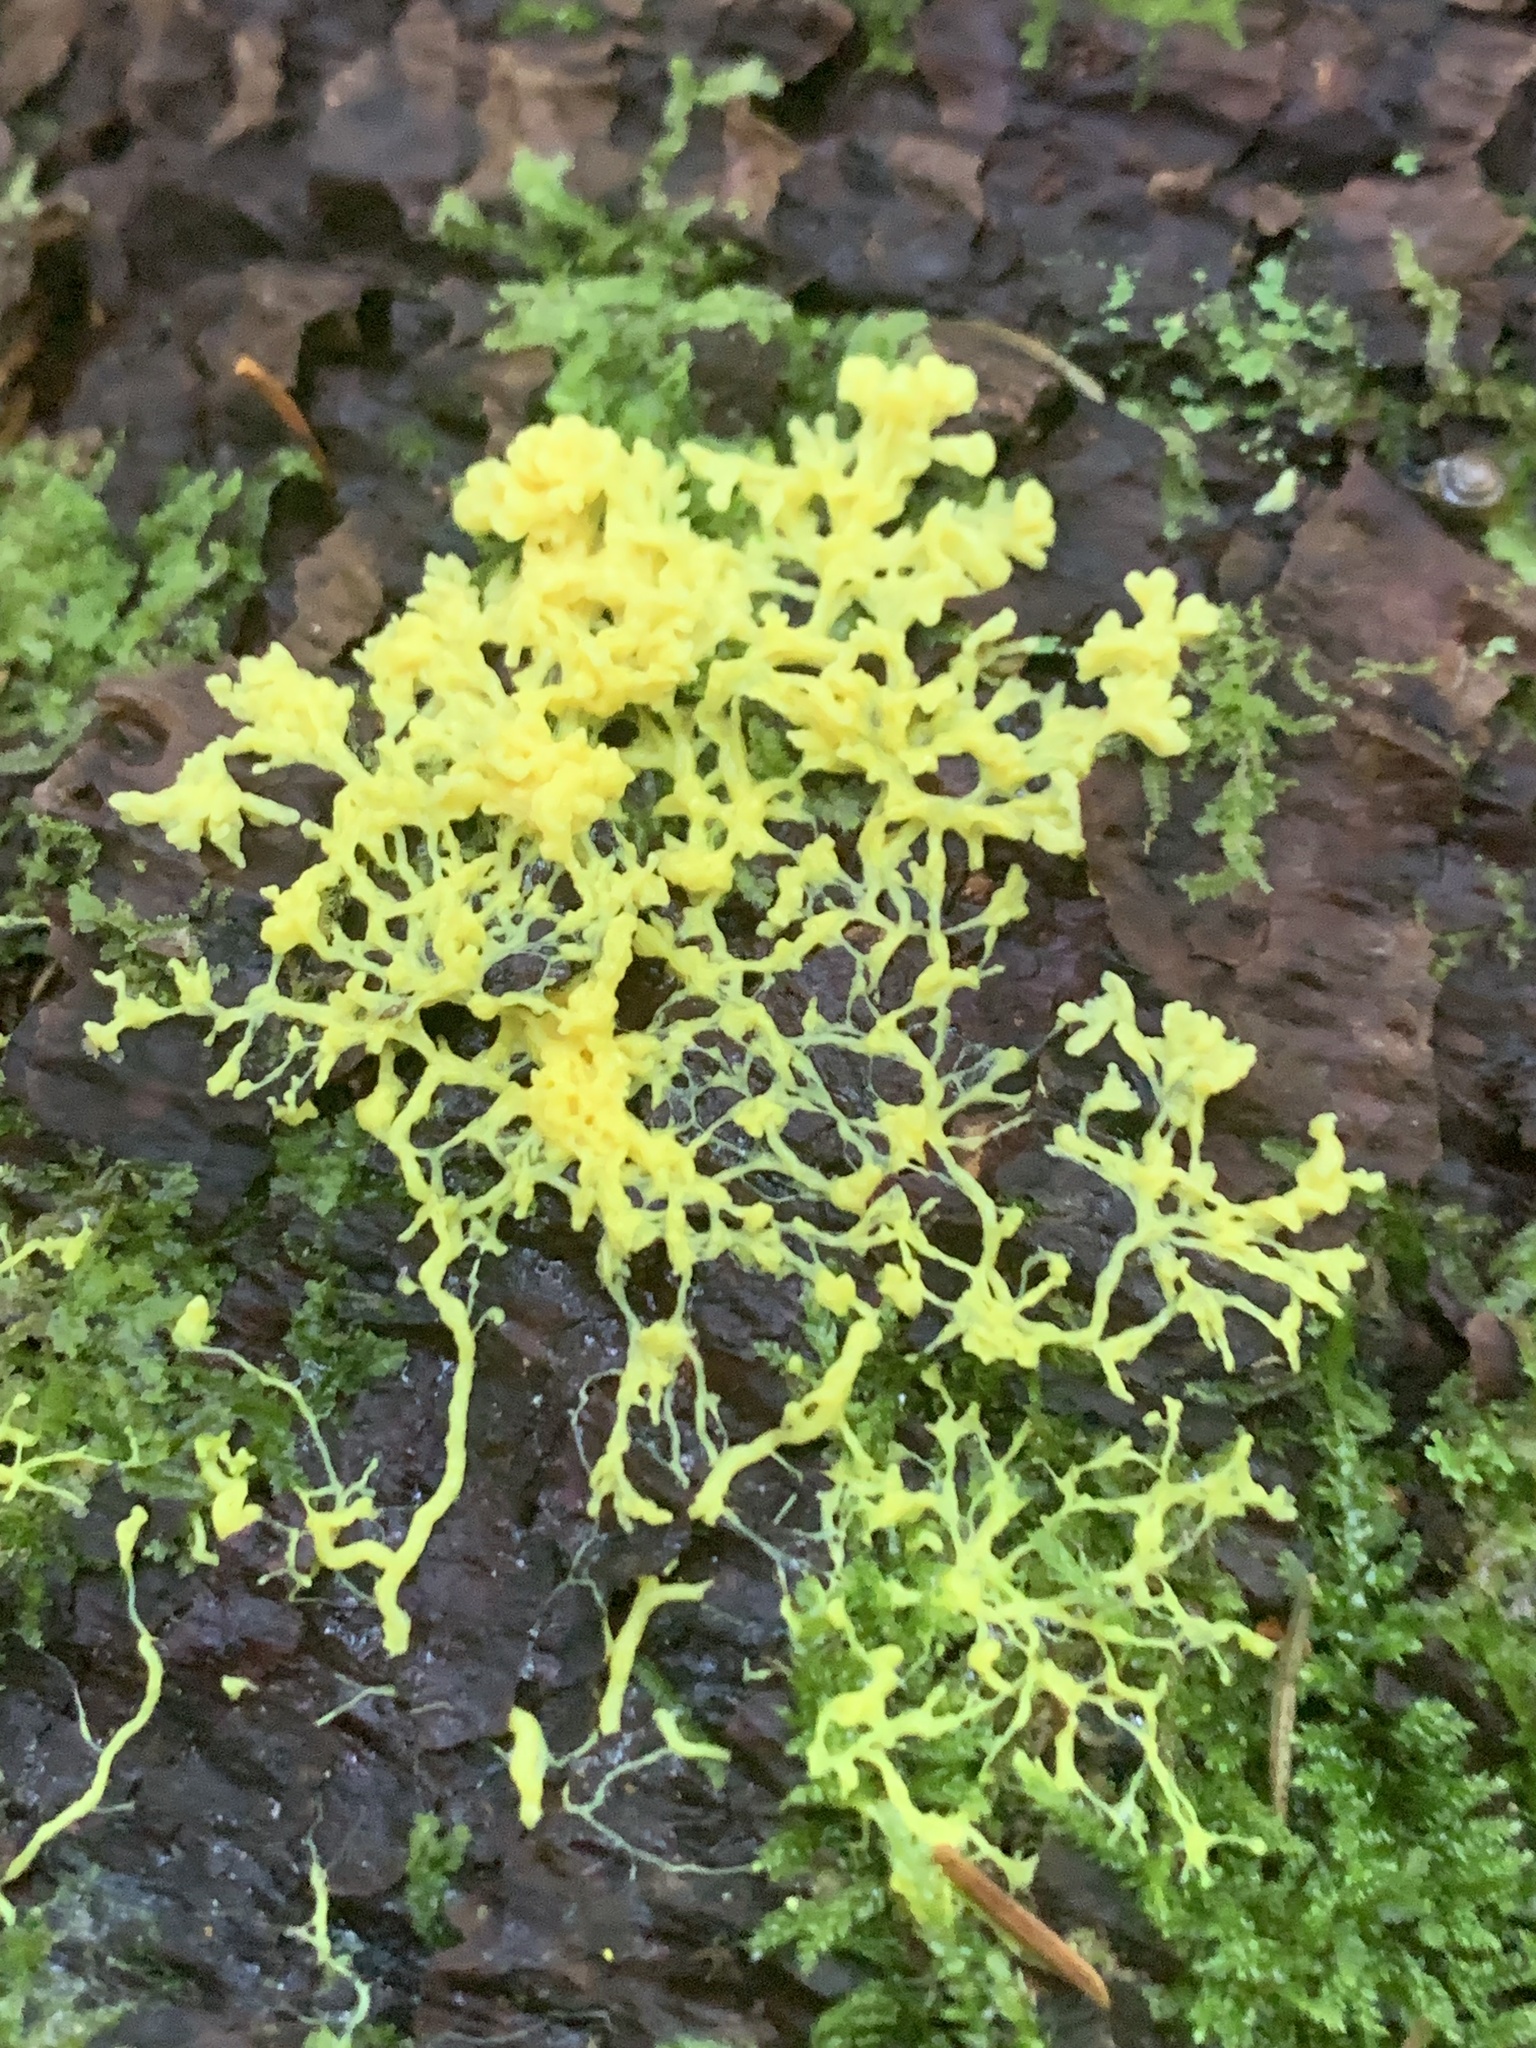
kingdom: Protozoa
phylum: Mycetozoa
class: Myxomycetes
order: Physarales
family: Physaraceae
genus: Fuligo
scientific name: Fuligo septica
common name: Dog vomit slime mold
